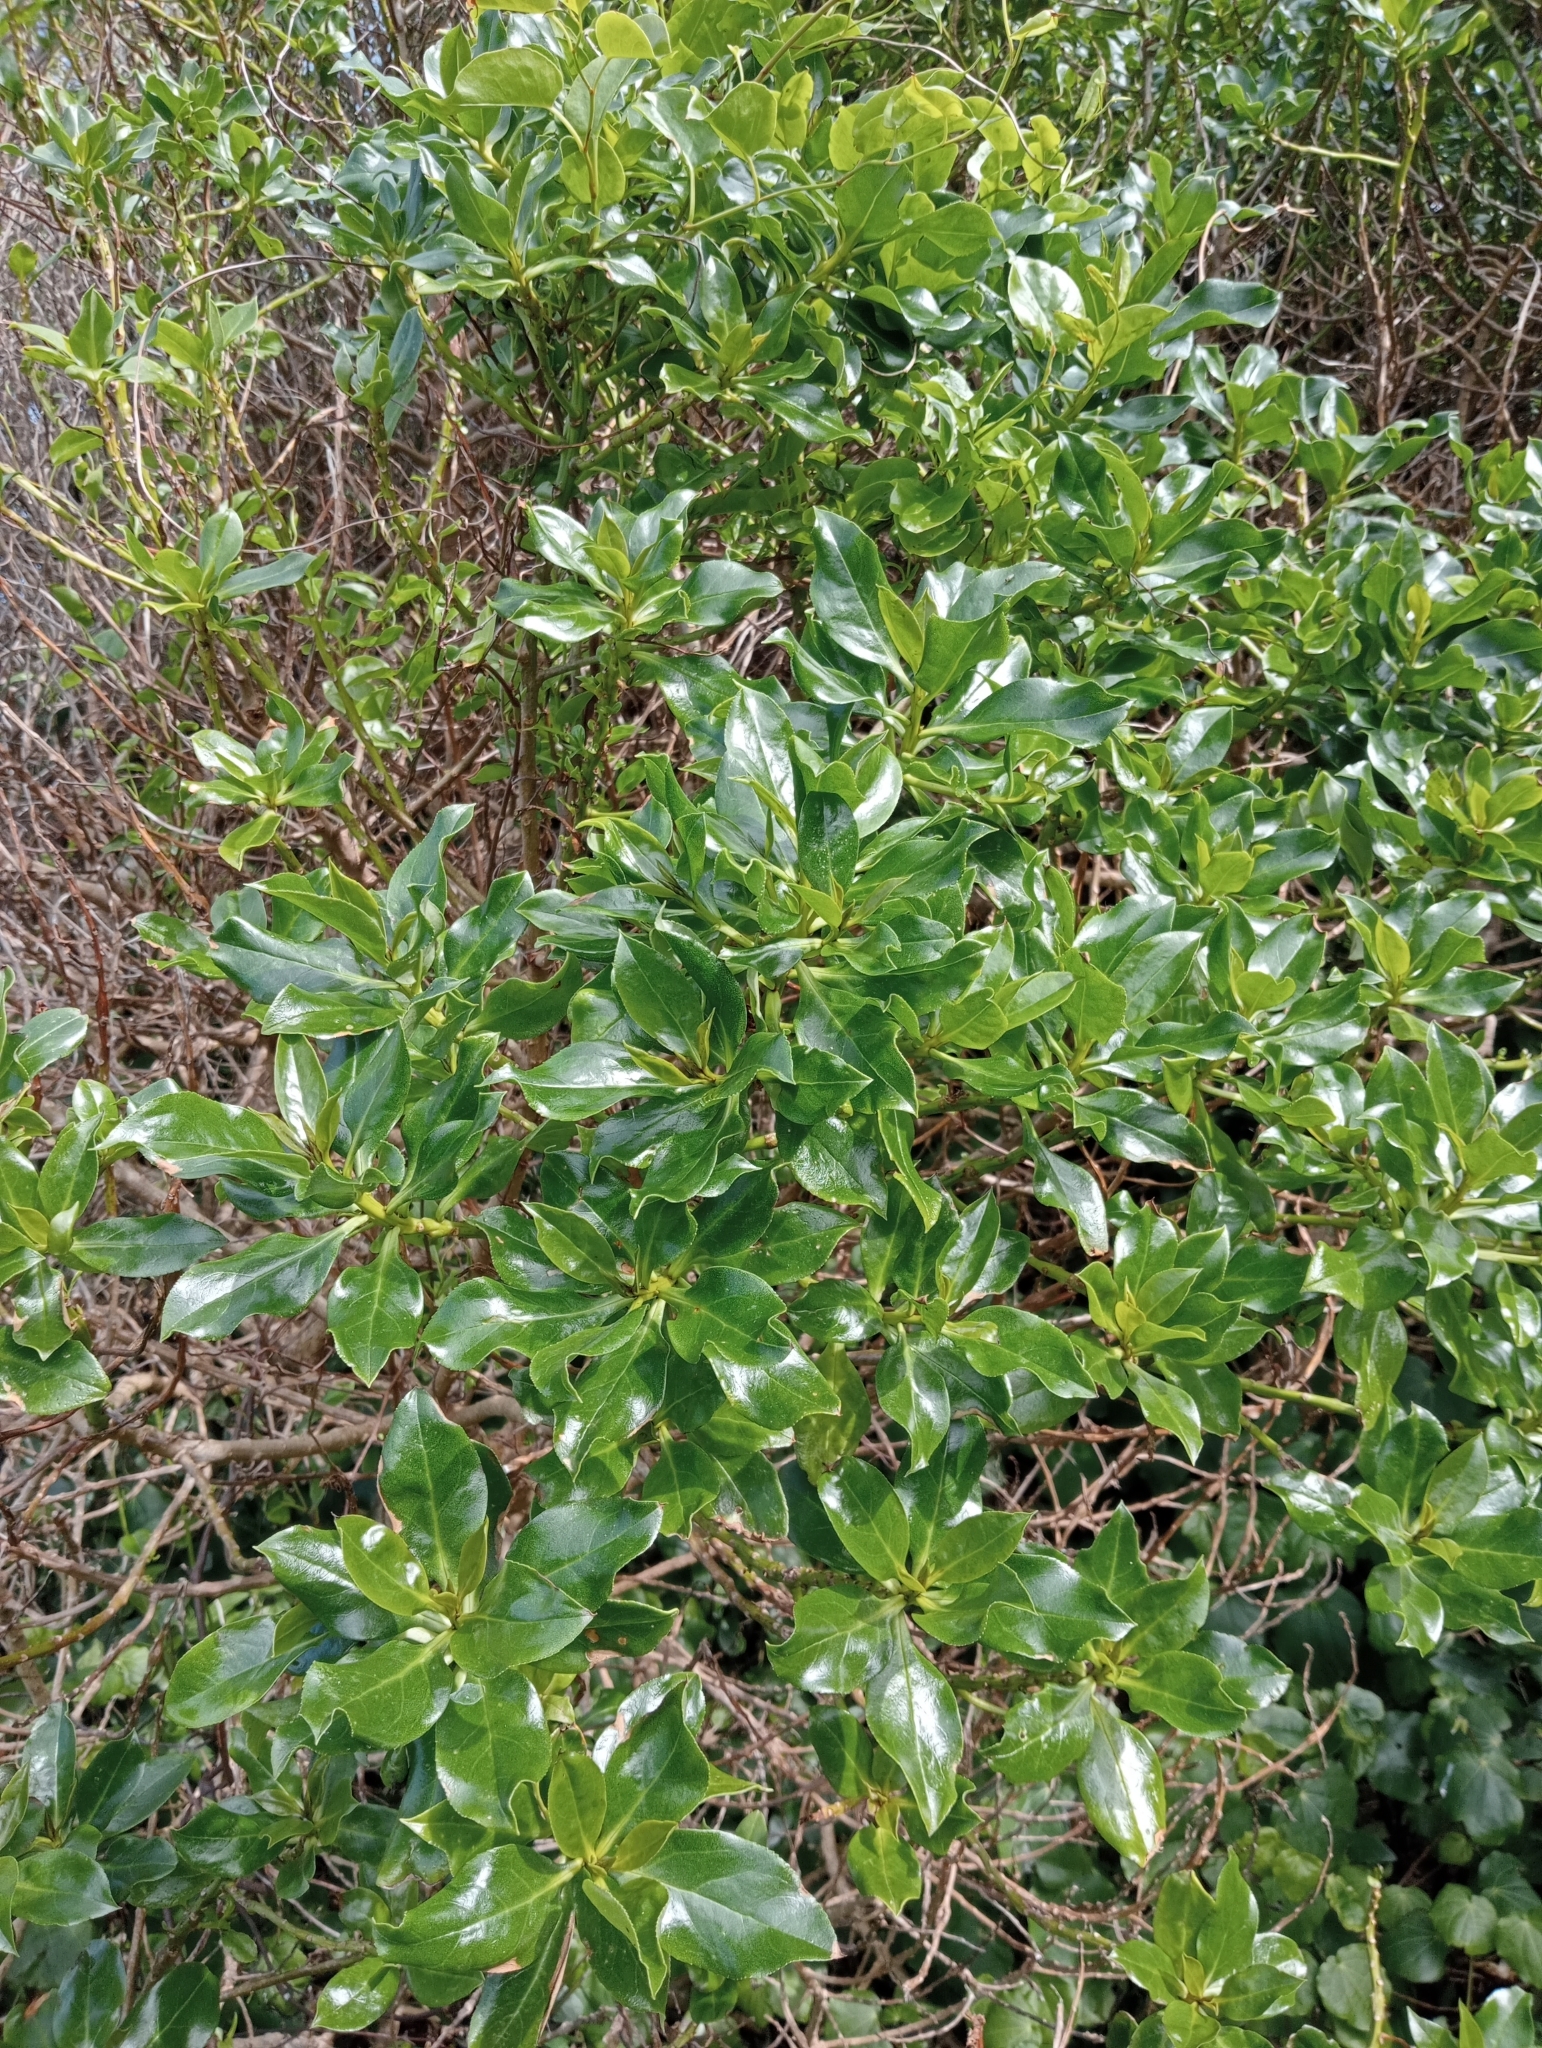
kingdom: Plantae
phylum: Tracheophyta
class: Magnoliopsida
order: Lamiales
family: Scrophulariaceae
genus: Myoporum
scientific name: Myoporum semotum
